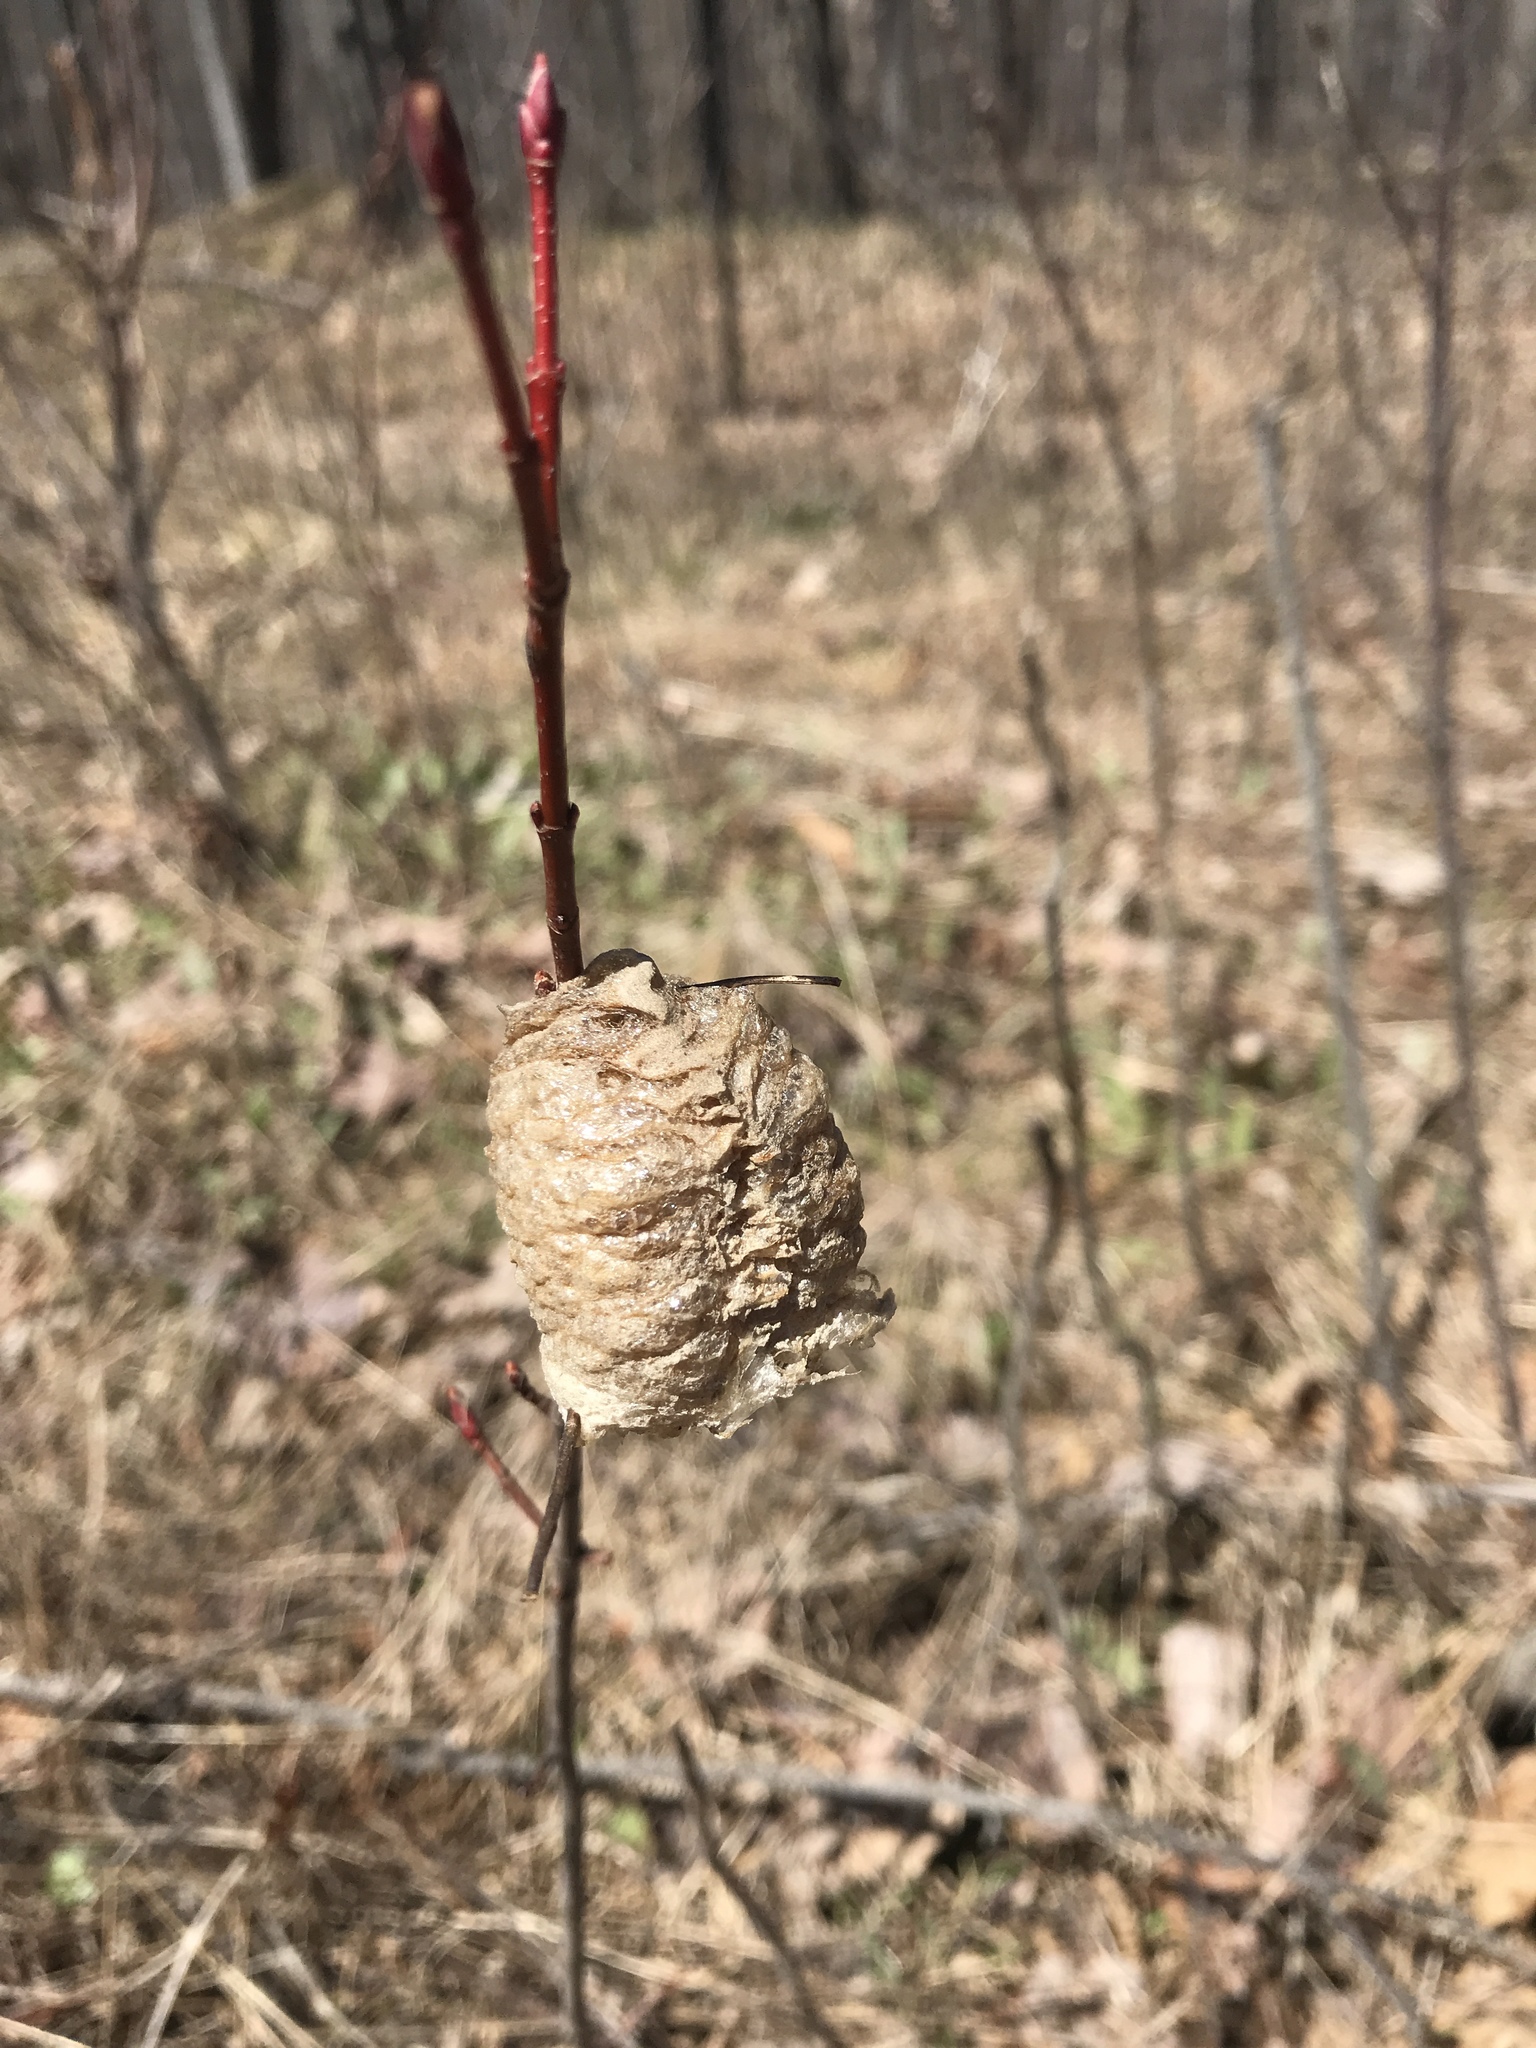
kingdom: Animalia
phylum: Arthropoda
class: Insecta
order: Mantodea
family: Mantidae
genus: Tenodera
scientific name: Tenodera sinensis
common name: Chinese mantis
